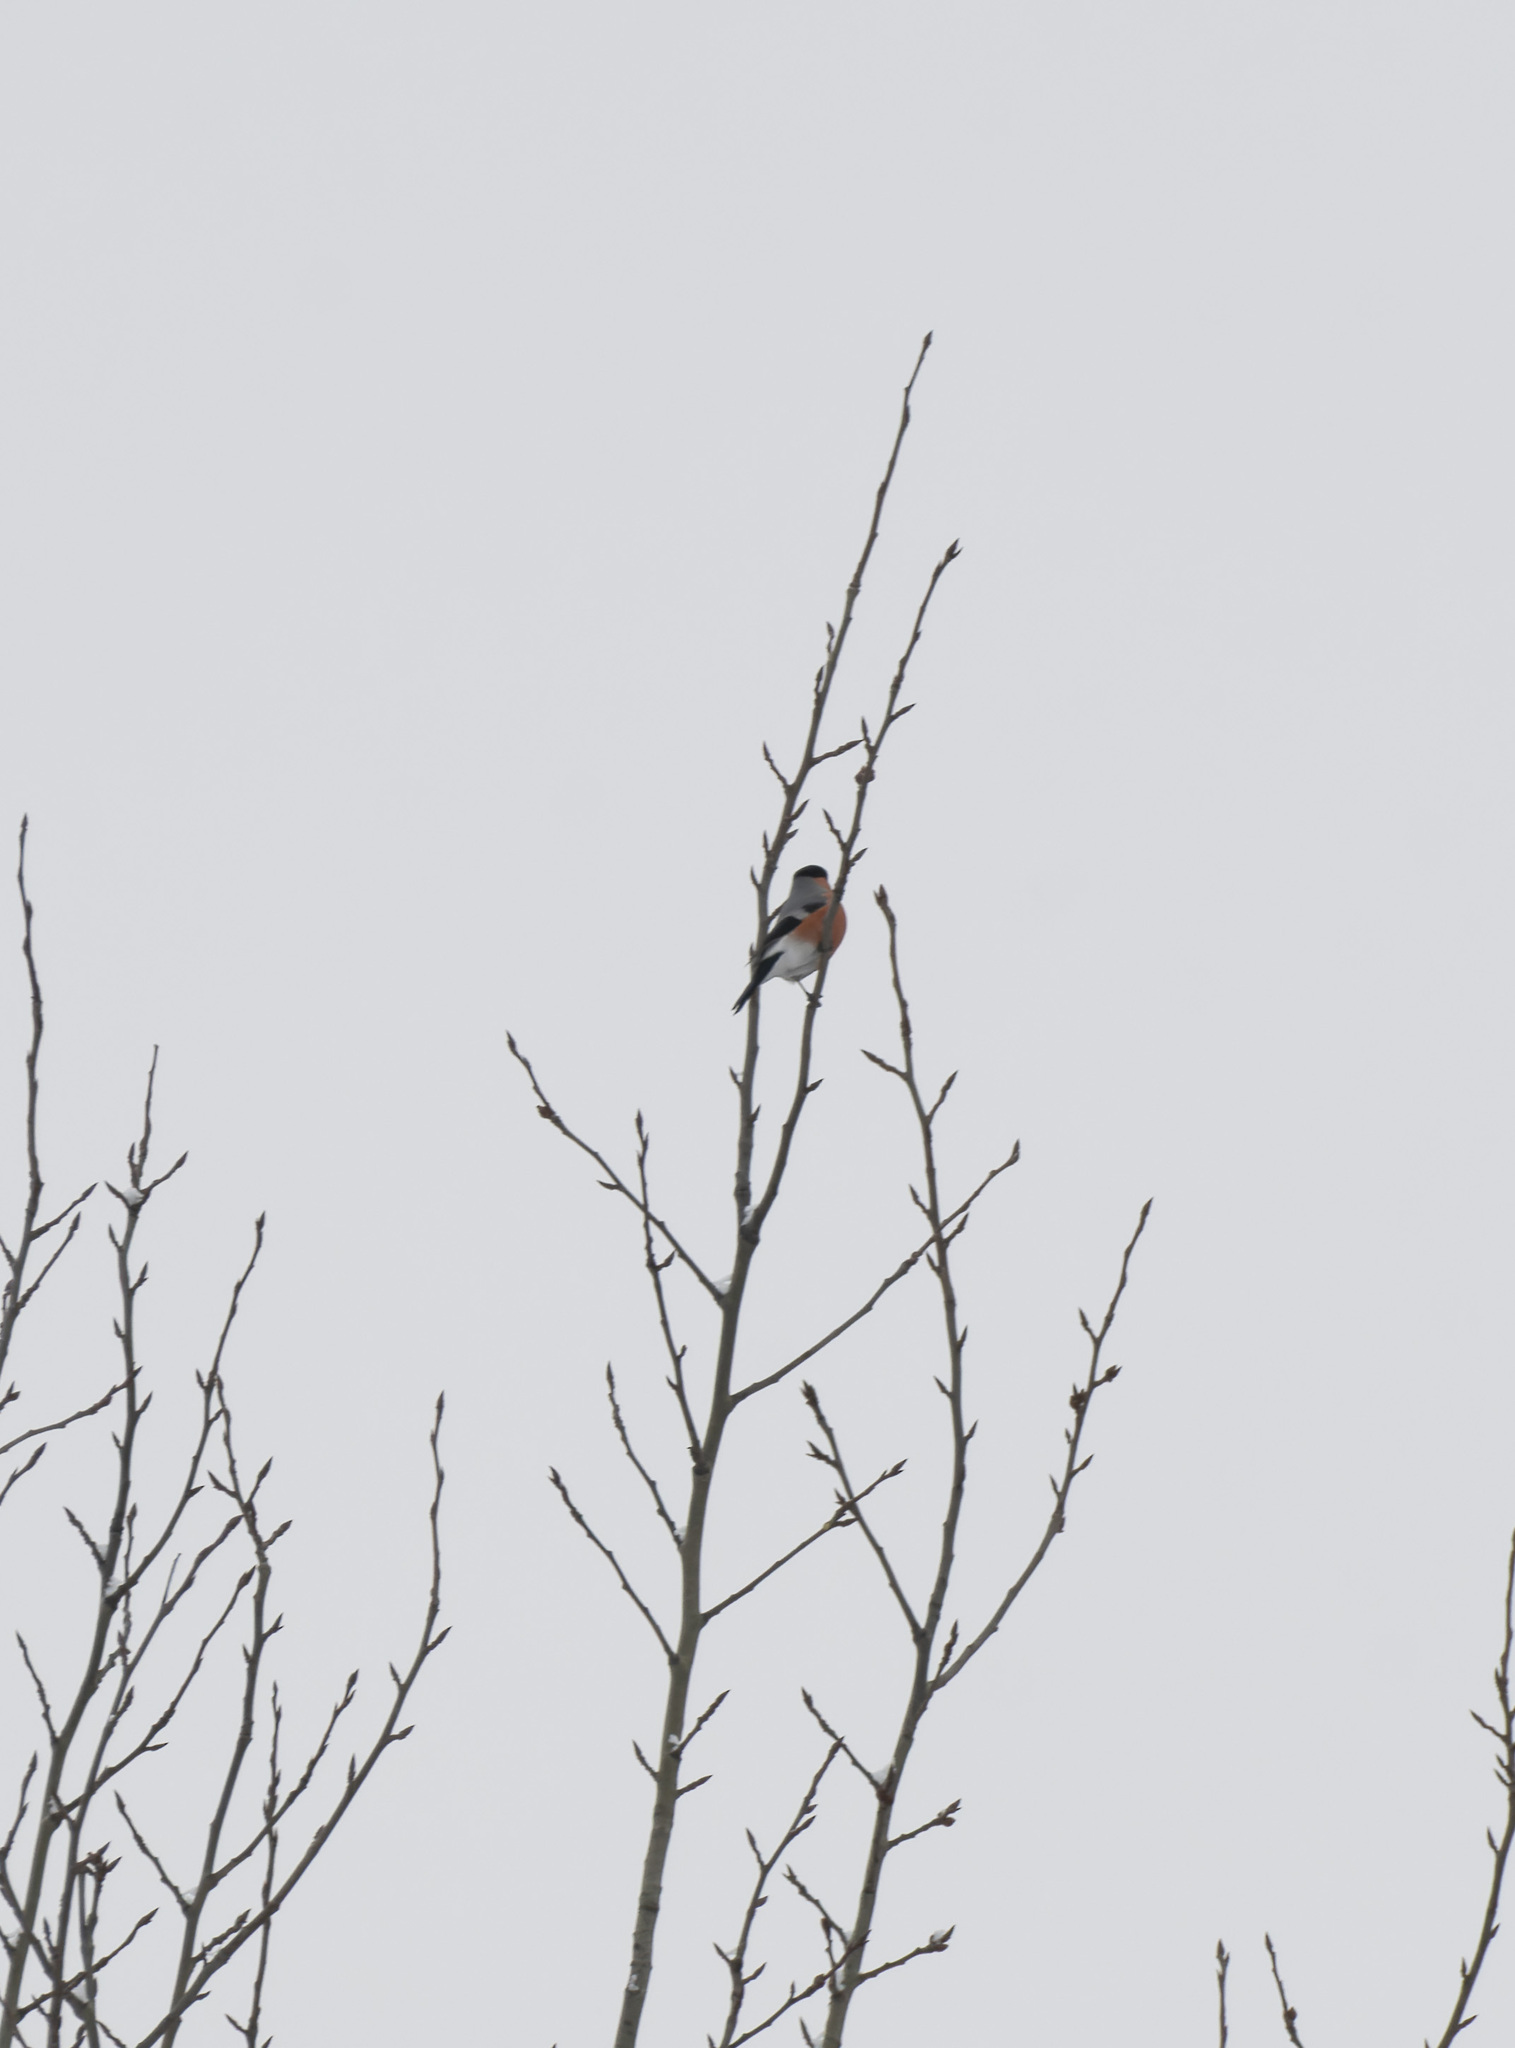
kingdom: Animalia
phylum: Chordata
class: Aves
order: Passeriformes
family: Fringillidae
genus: Pyrrhula
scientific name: Pyrrhula pyrrhula
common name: Eurasian bullfinch
